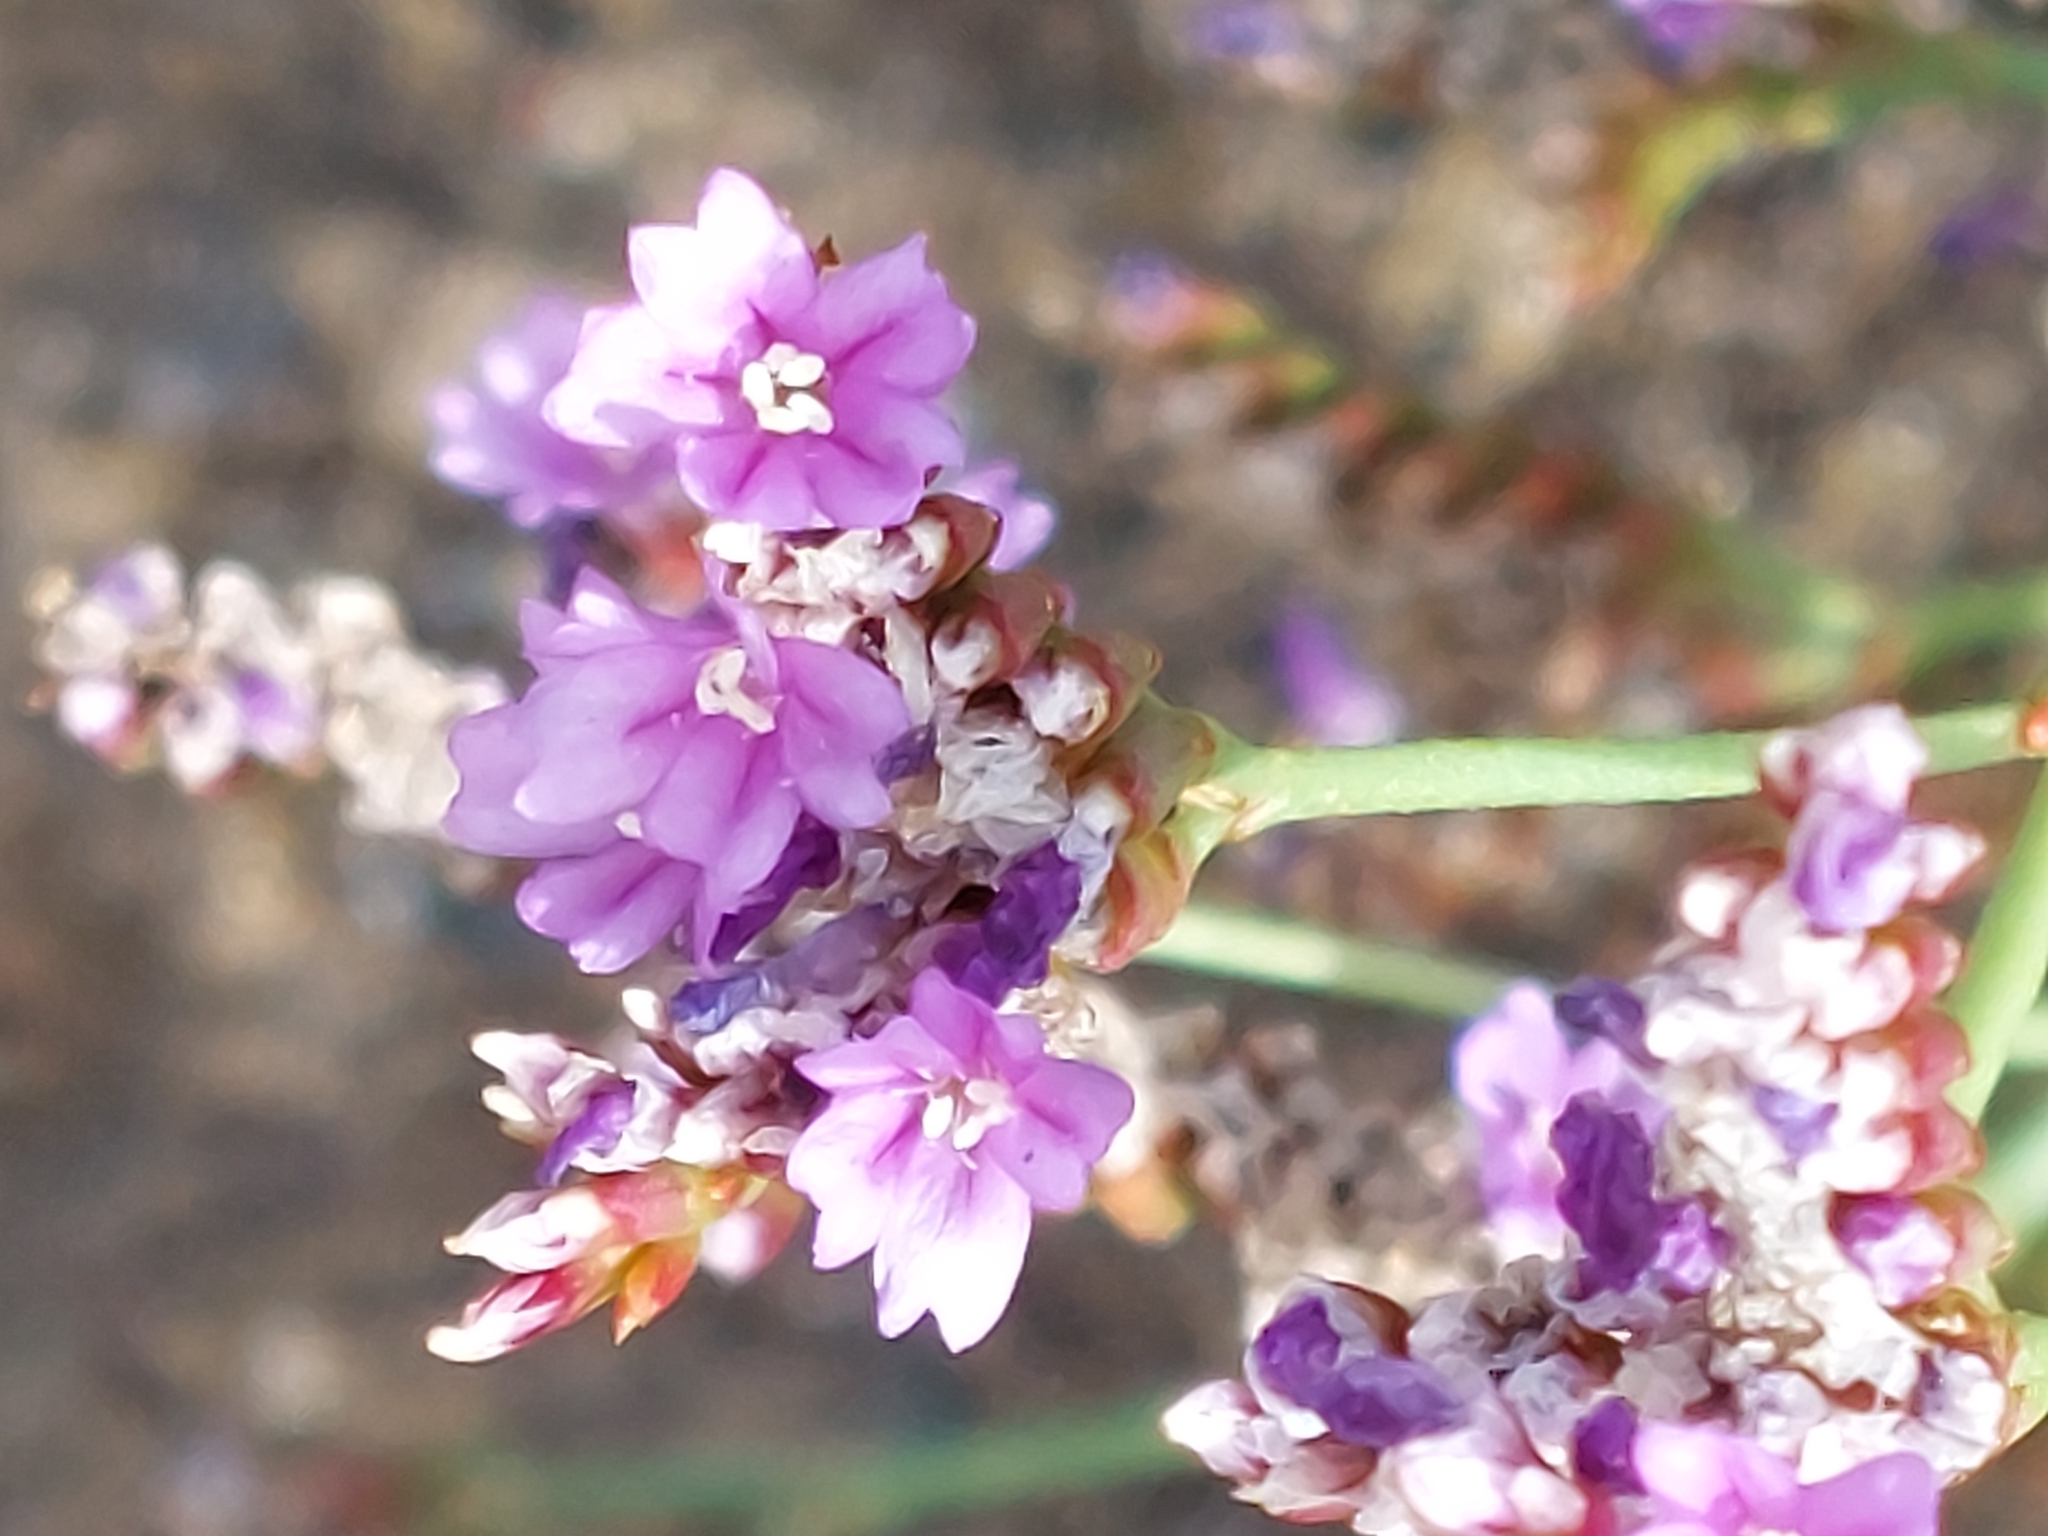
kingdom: Plantae
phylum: Tracheophyta
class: Magnoliopsida
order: Caryophyllales
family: Plumbaginaceae
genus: Limonium
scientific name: Limonium vulgare
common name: Common sea-lavender
